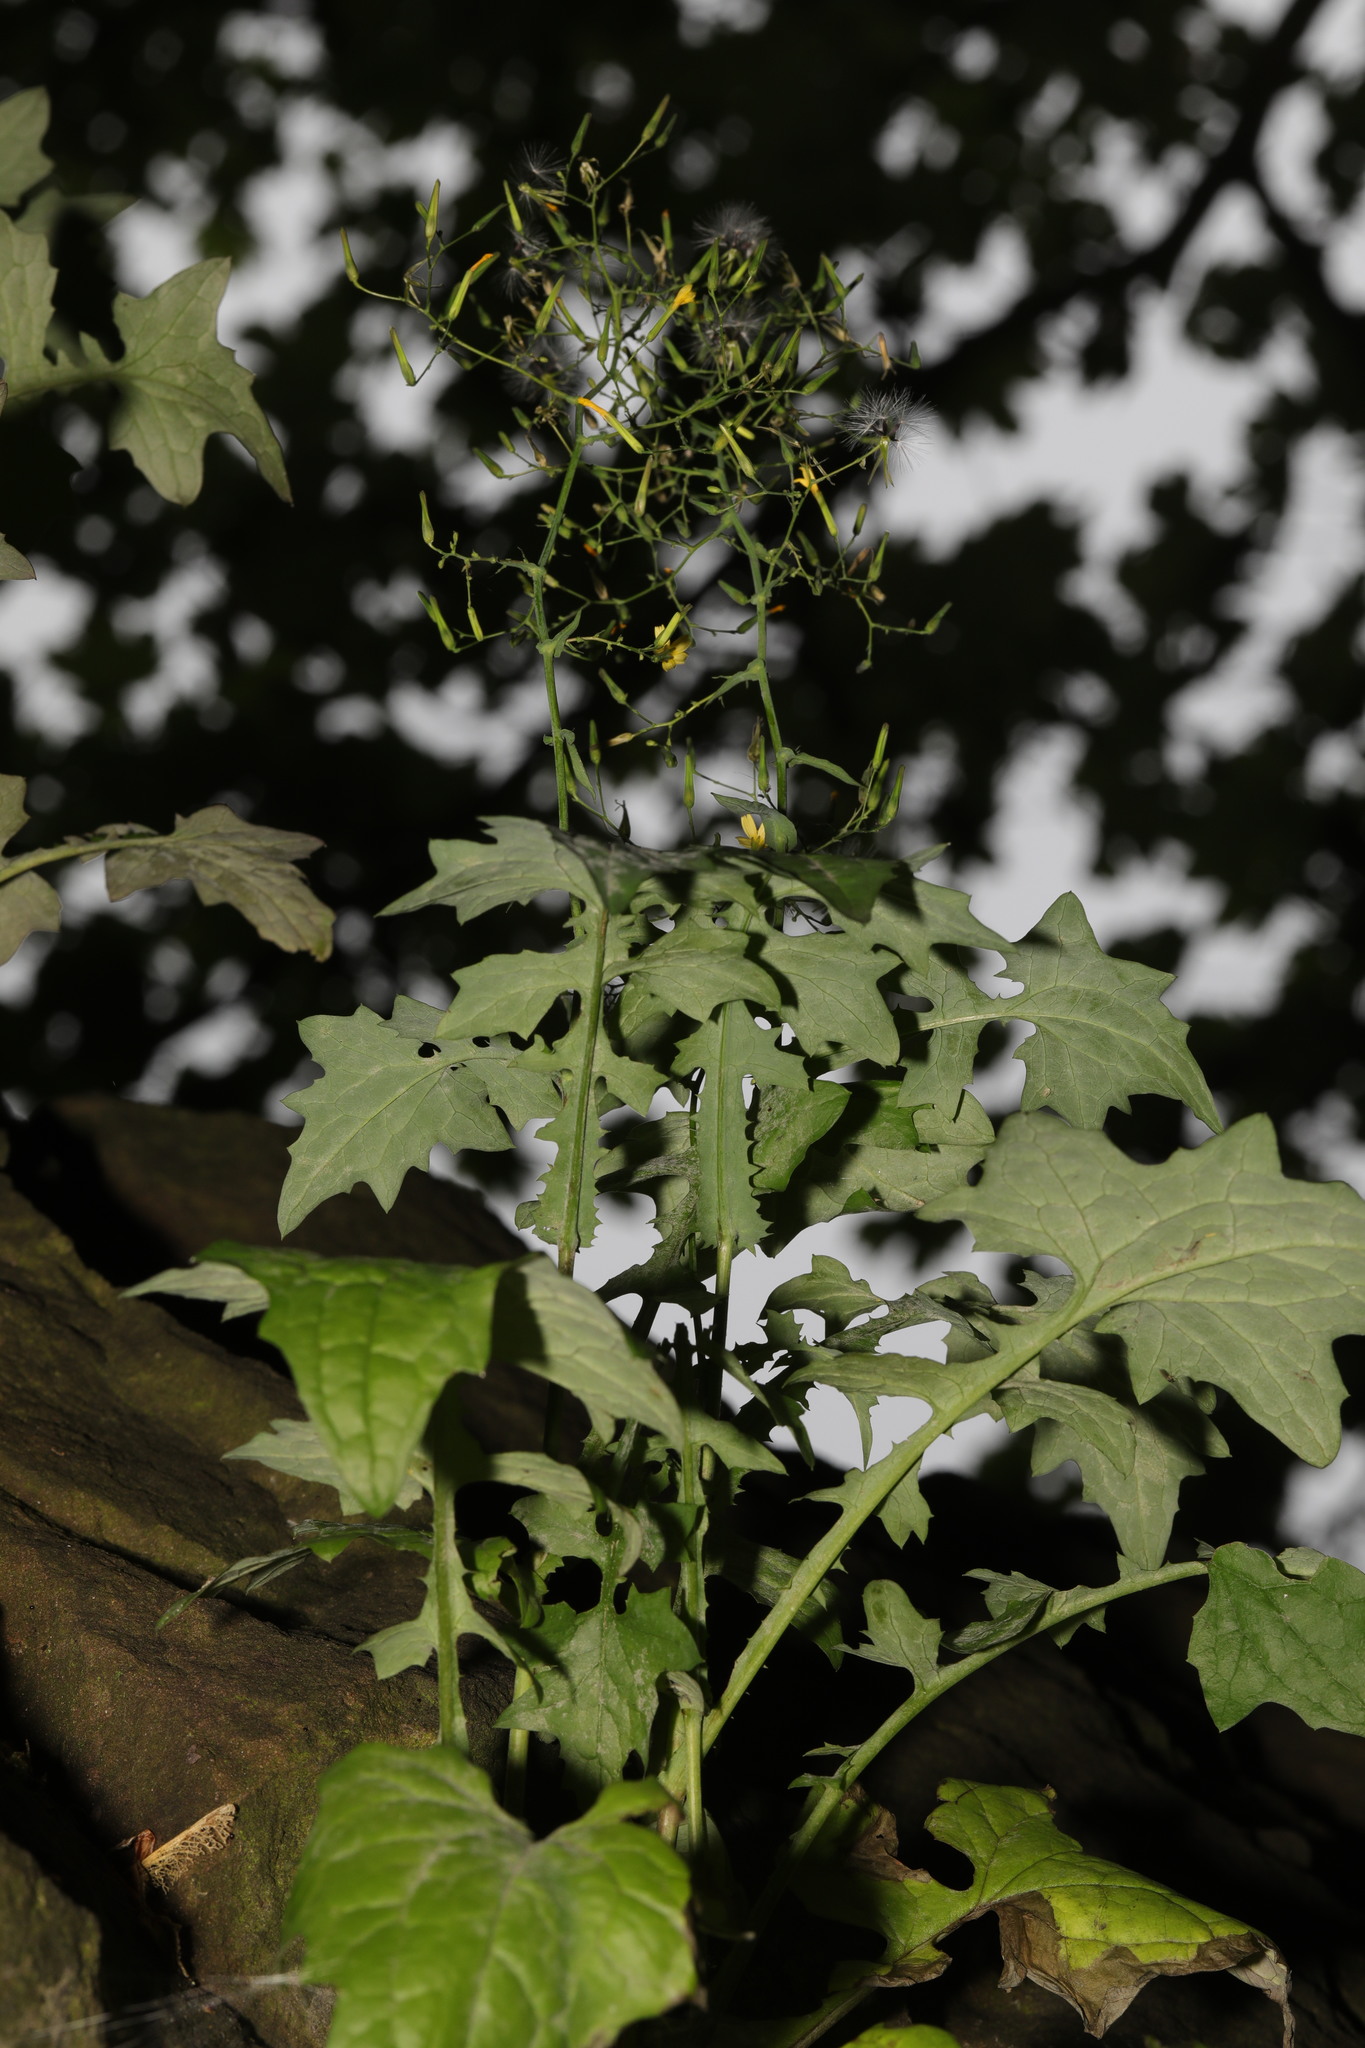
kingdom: Plantae
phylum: Tracheophyta
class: Magnoliopsida
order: Asterales
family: Asteraceae
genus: Mycelis
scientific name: Mycelis muralis
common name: Wall lettuce
